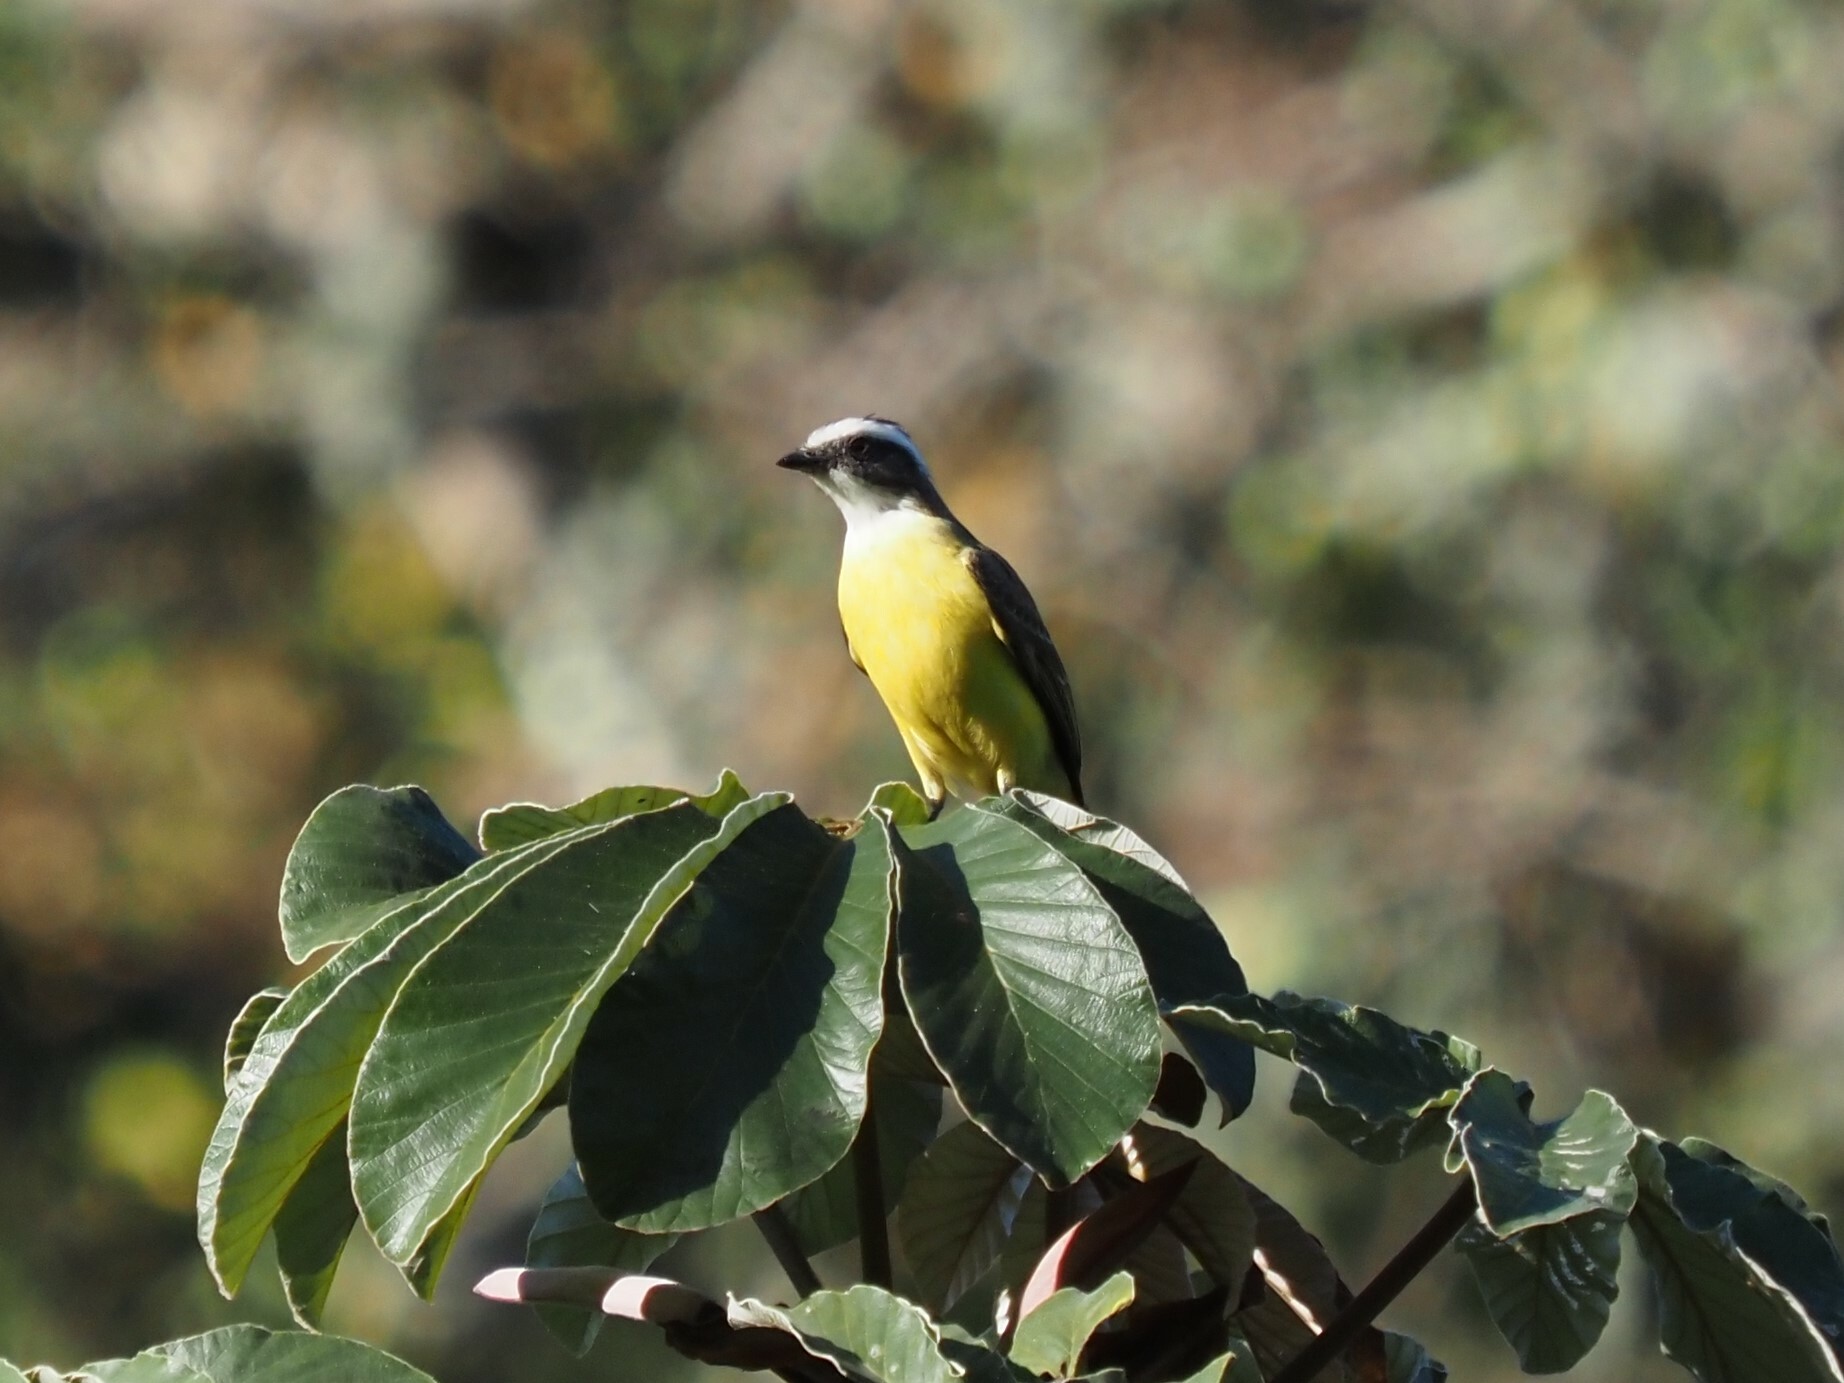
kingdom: Animalia
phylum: Chordata
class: Aves
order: Passeriformes
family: Tyrannidae
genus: Myiozetetes
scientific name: Myiozetetes similis
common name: Social flycatcher
